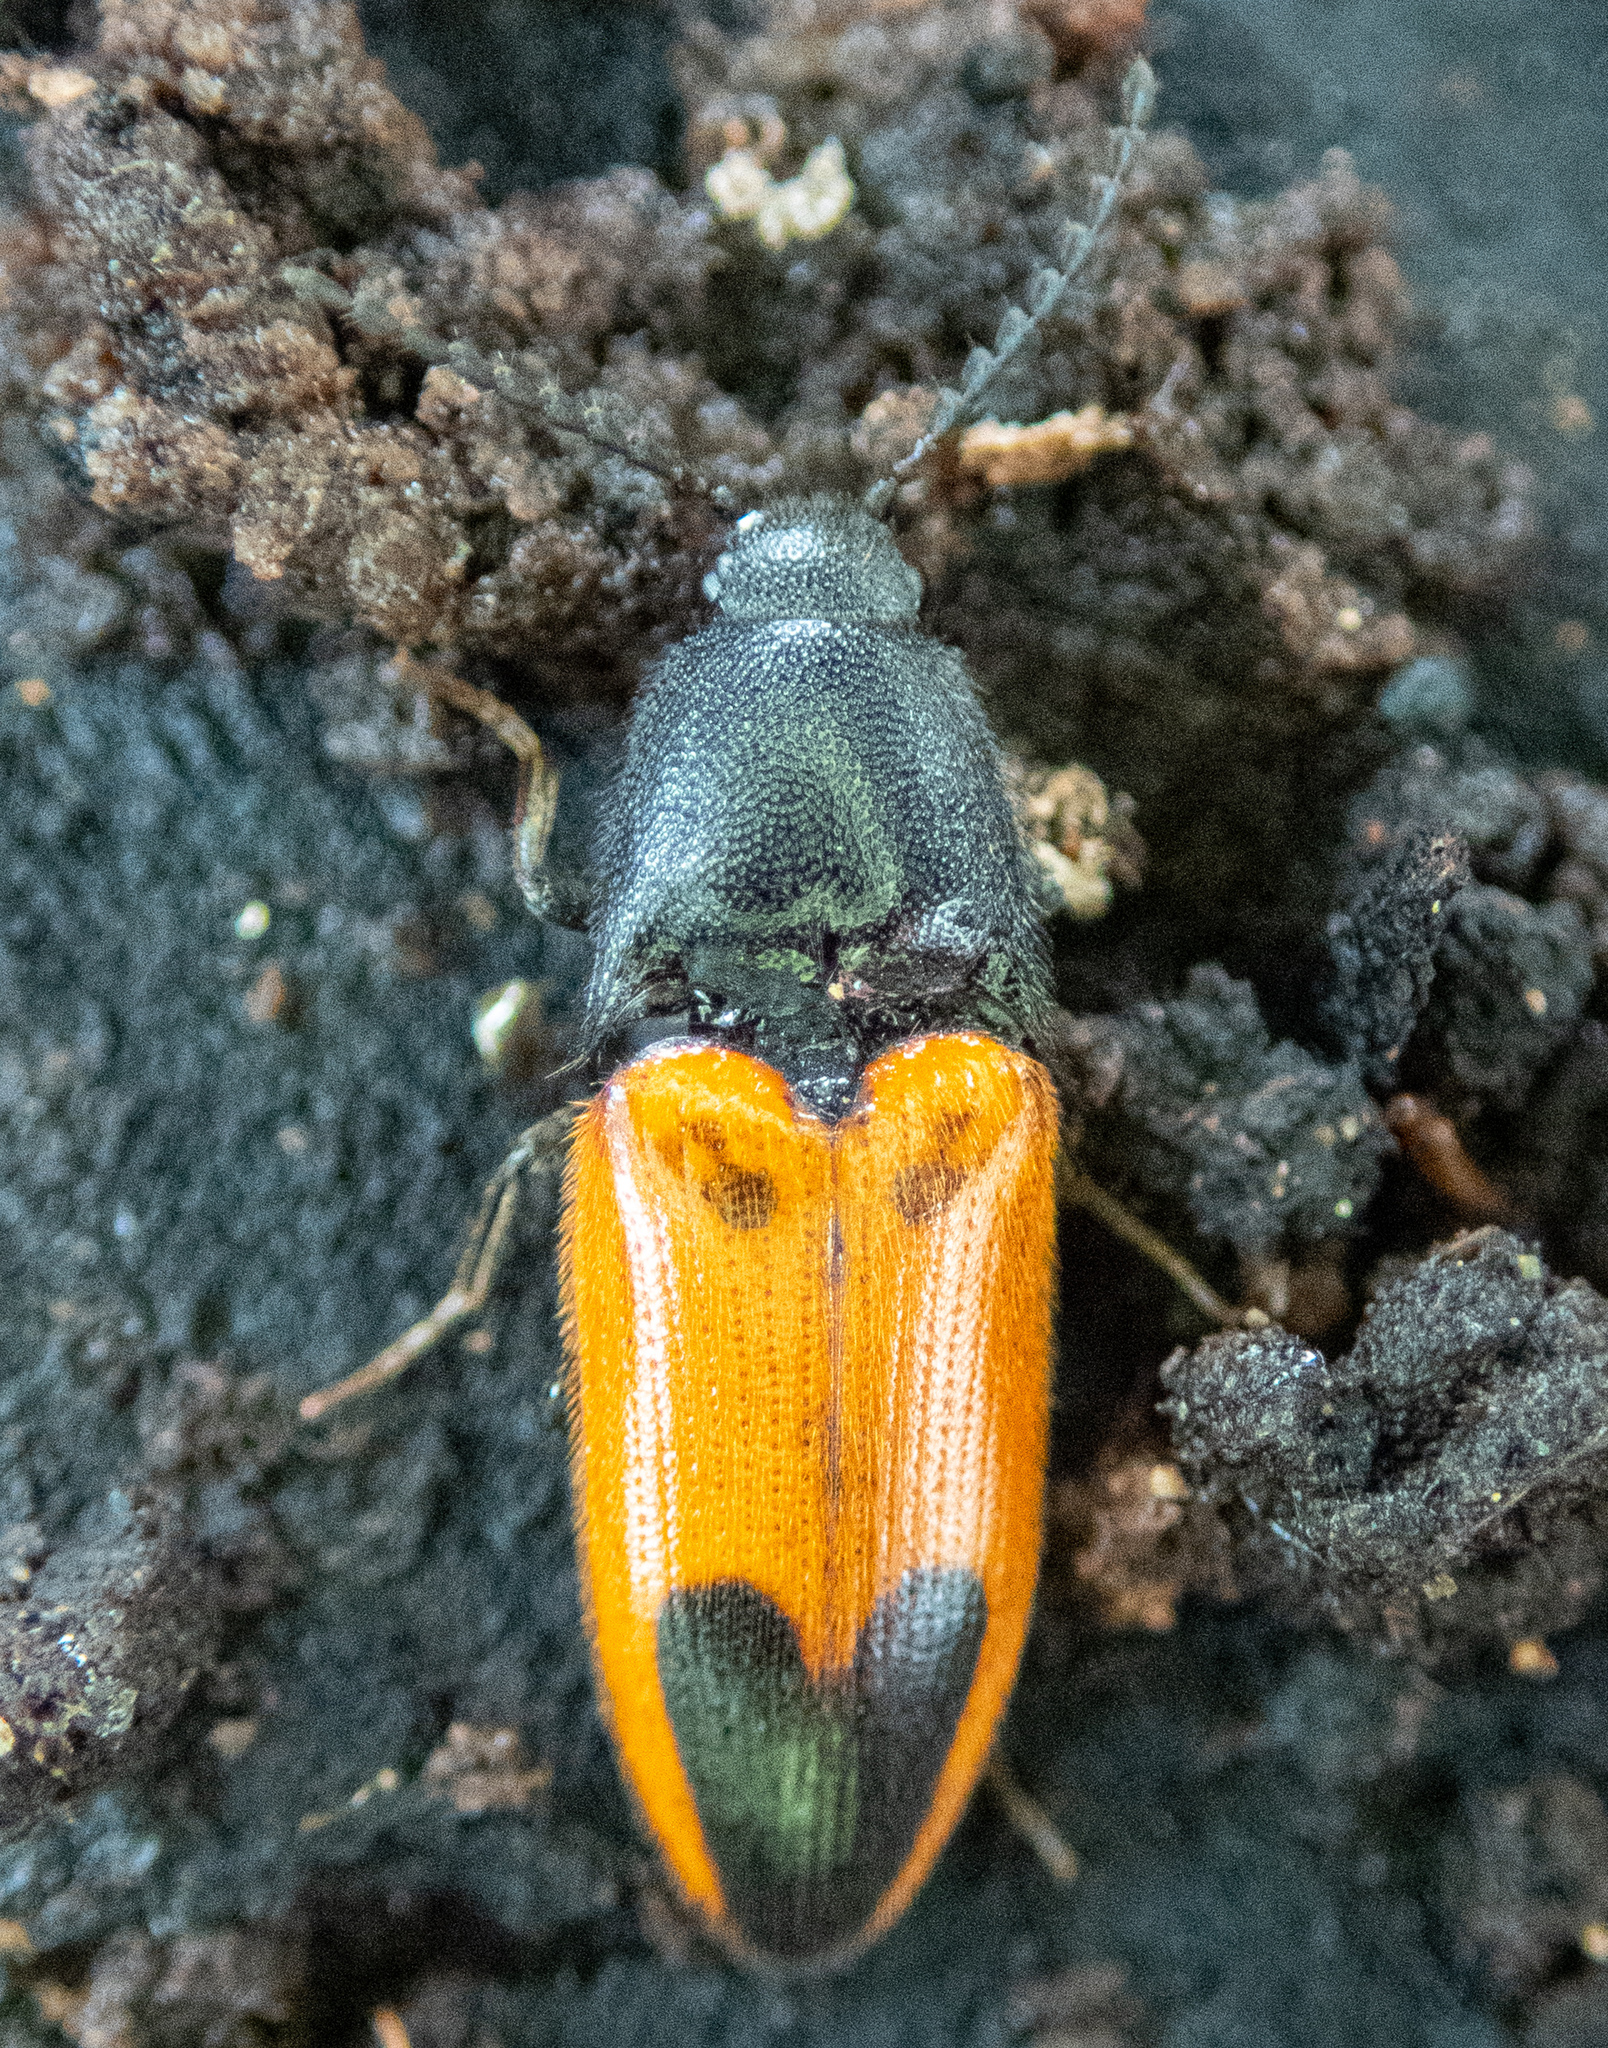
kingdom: Animalia
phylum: Arthropoda
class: Insecta
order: Coleoptera
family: Elateridae
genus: Ampedus
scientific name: Ampedus
